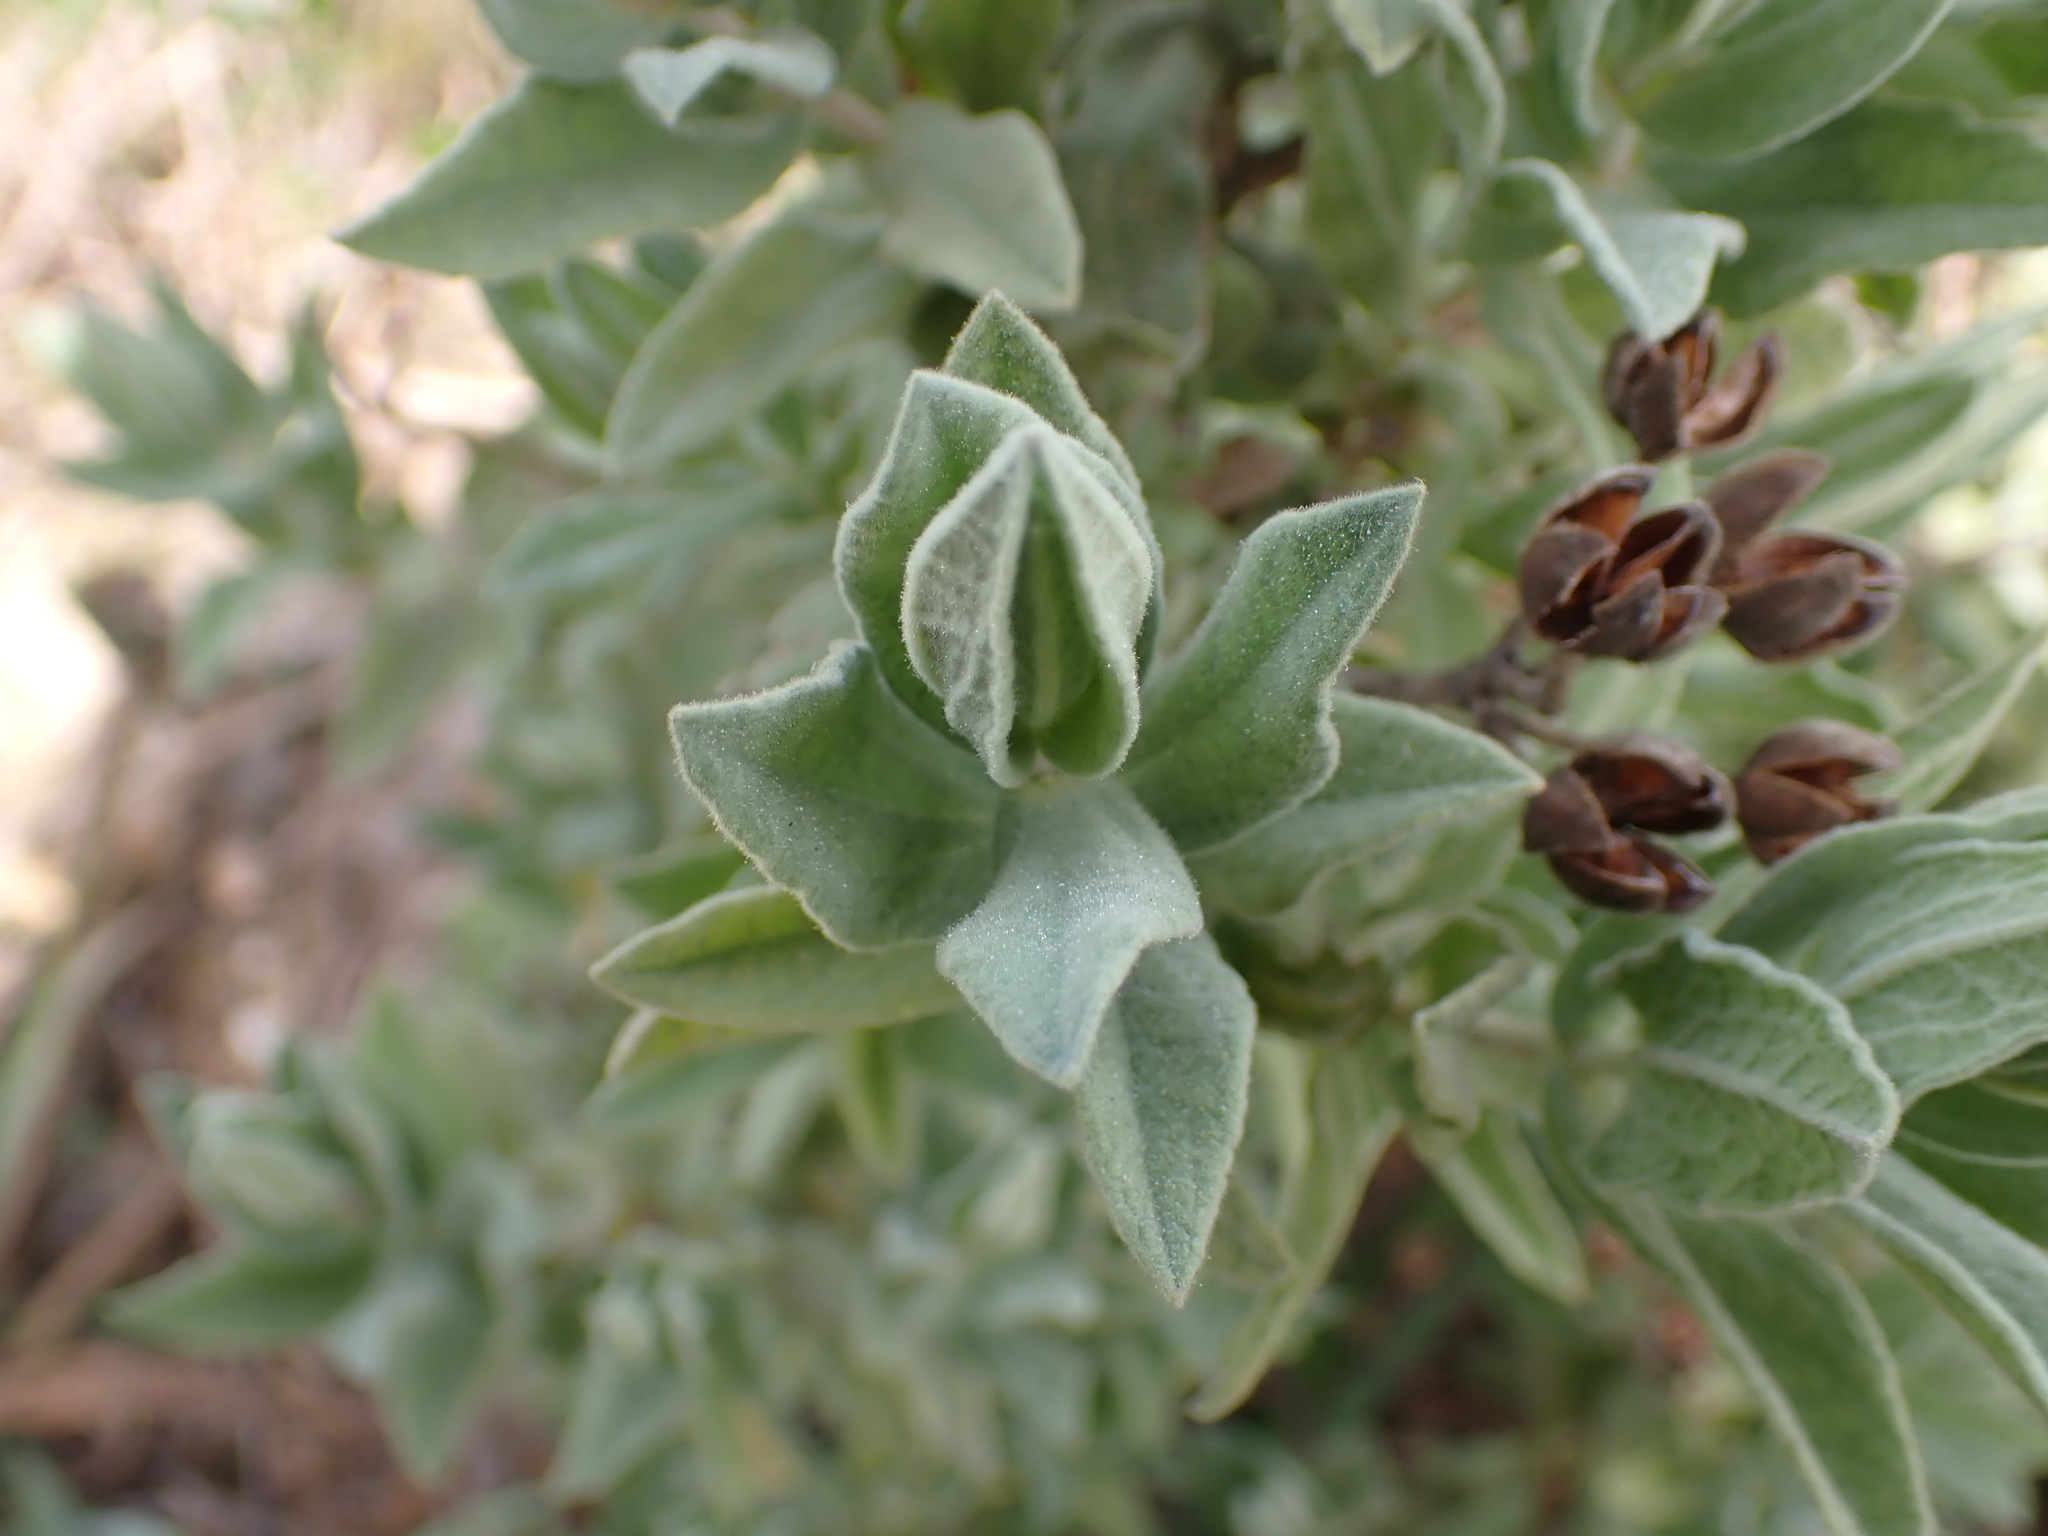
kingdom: Plantae
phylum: Tracheophyta
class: Magnoliopsida
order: Malvales
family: Cistaceae
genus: Cistus
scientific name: Cistus albidus
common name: White-leaf rock-rose
